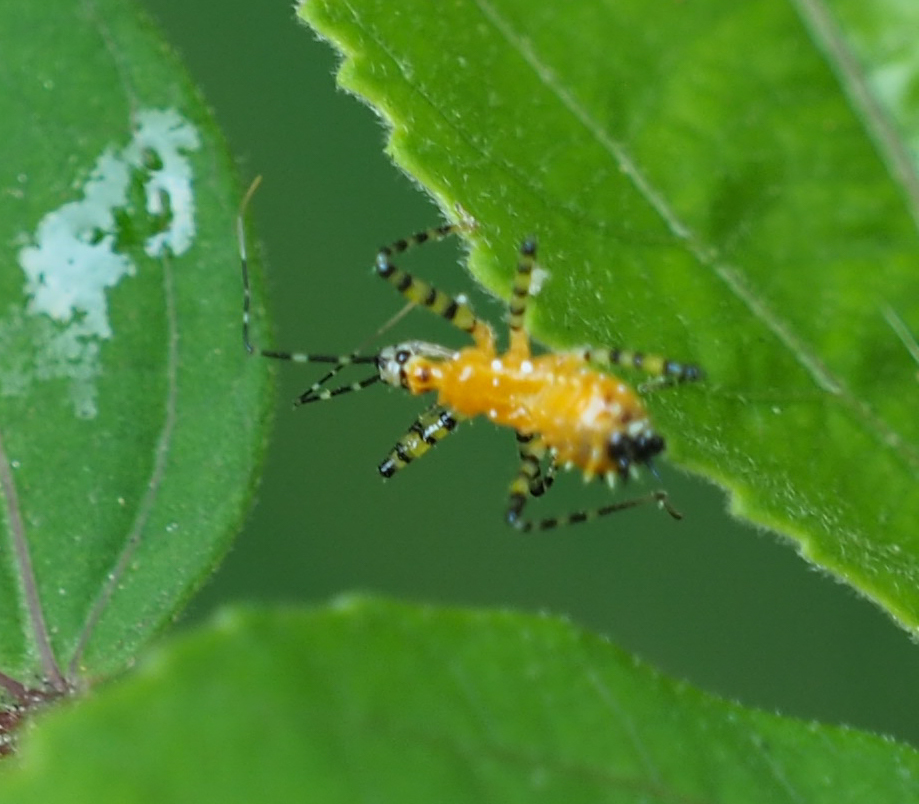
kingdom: Animalia
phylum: Arthropoda
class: Insecta
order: Hemiptera
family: Reduviidae
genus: Pselliopus
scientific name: Pselliopus barberi
